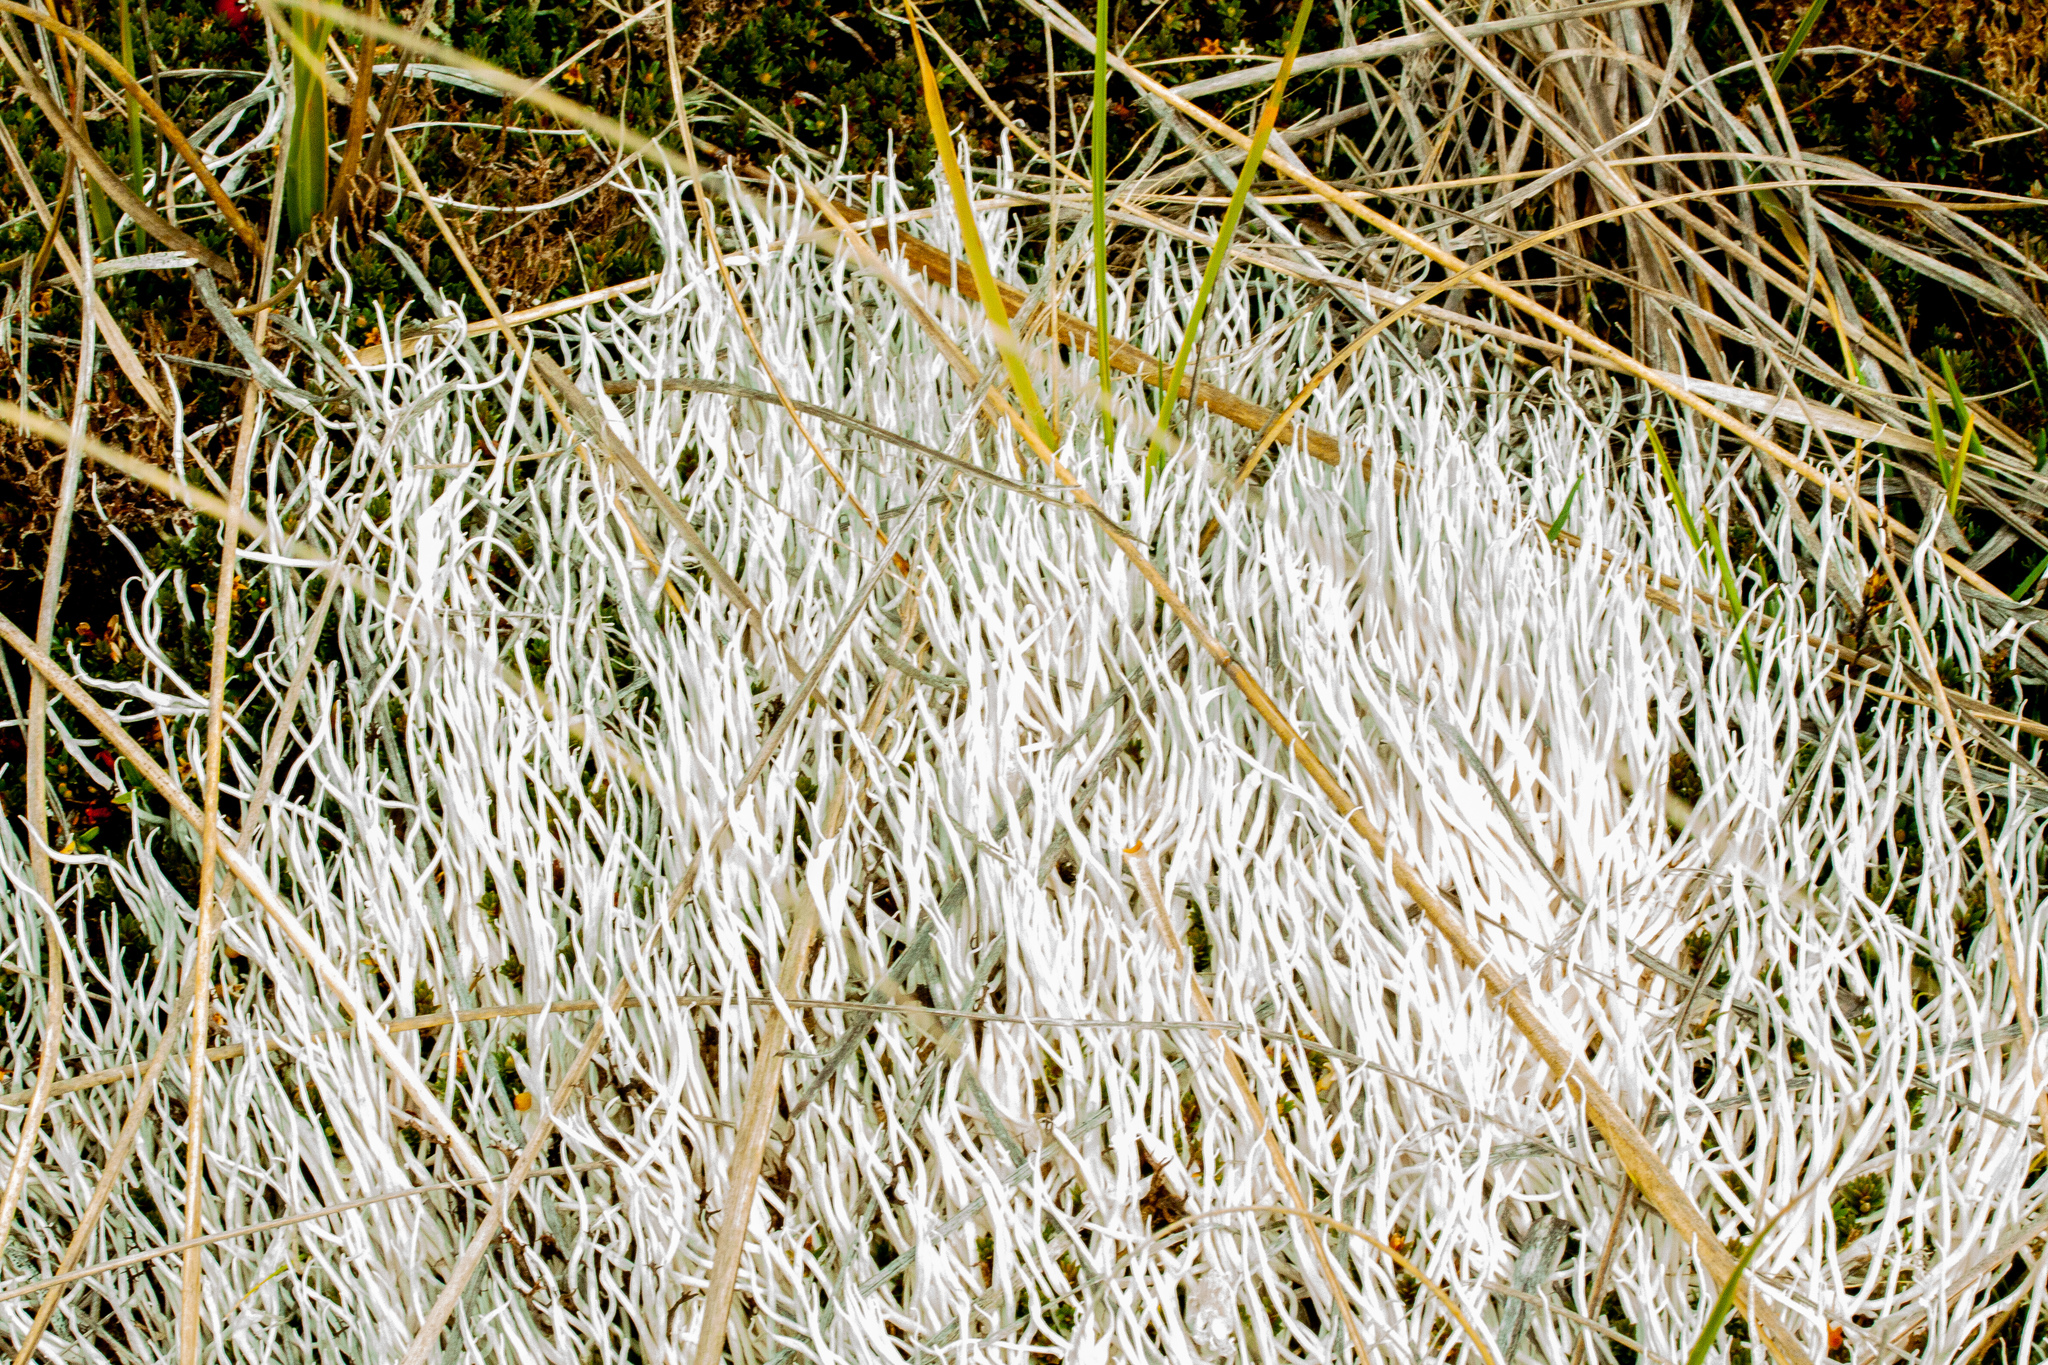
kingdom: Fungi
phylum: Ascomycota
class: Lecanoromycetes
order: Pertusariales
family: Icmadophilaceae
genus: Thamnolia
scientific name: Thamnolia vermicularis
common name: Whiteworm lichen
